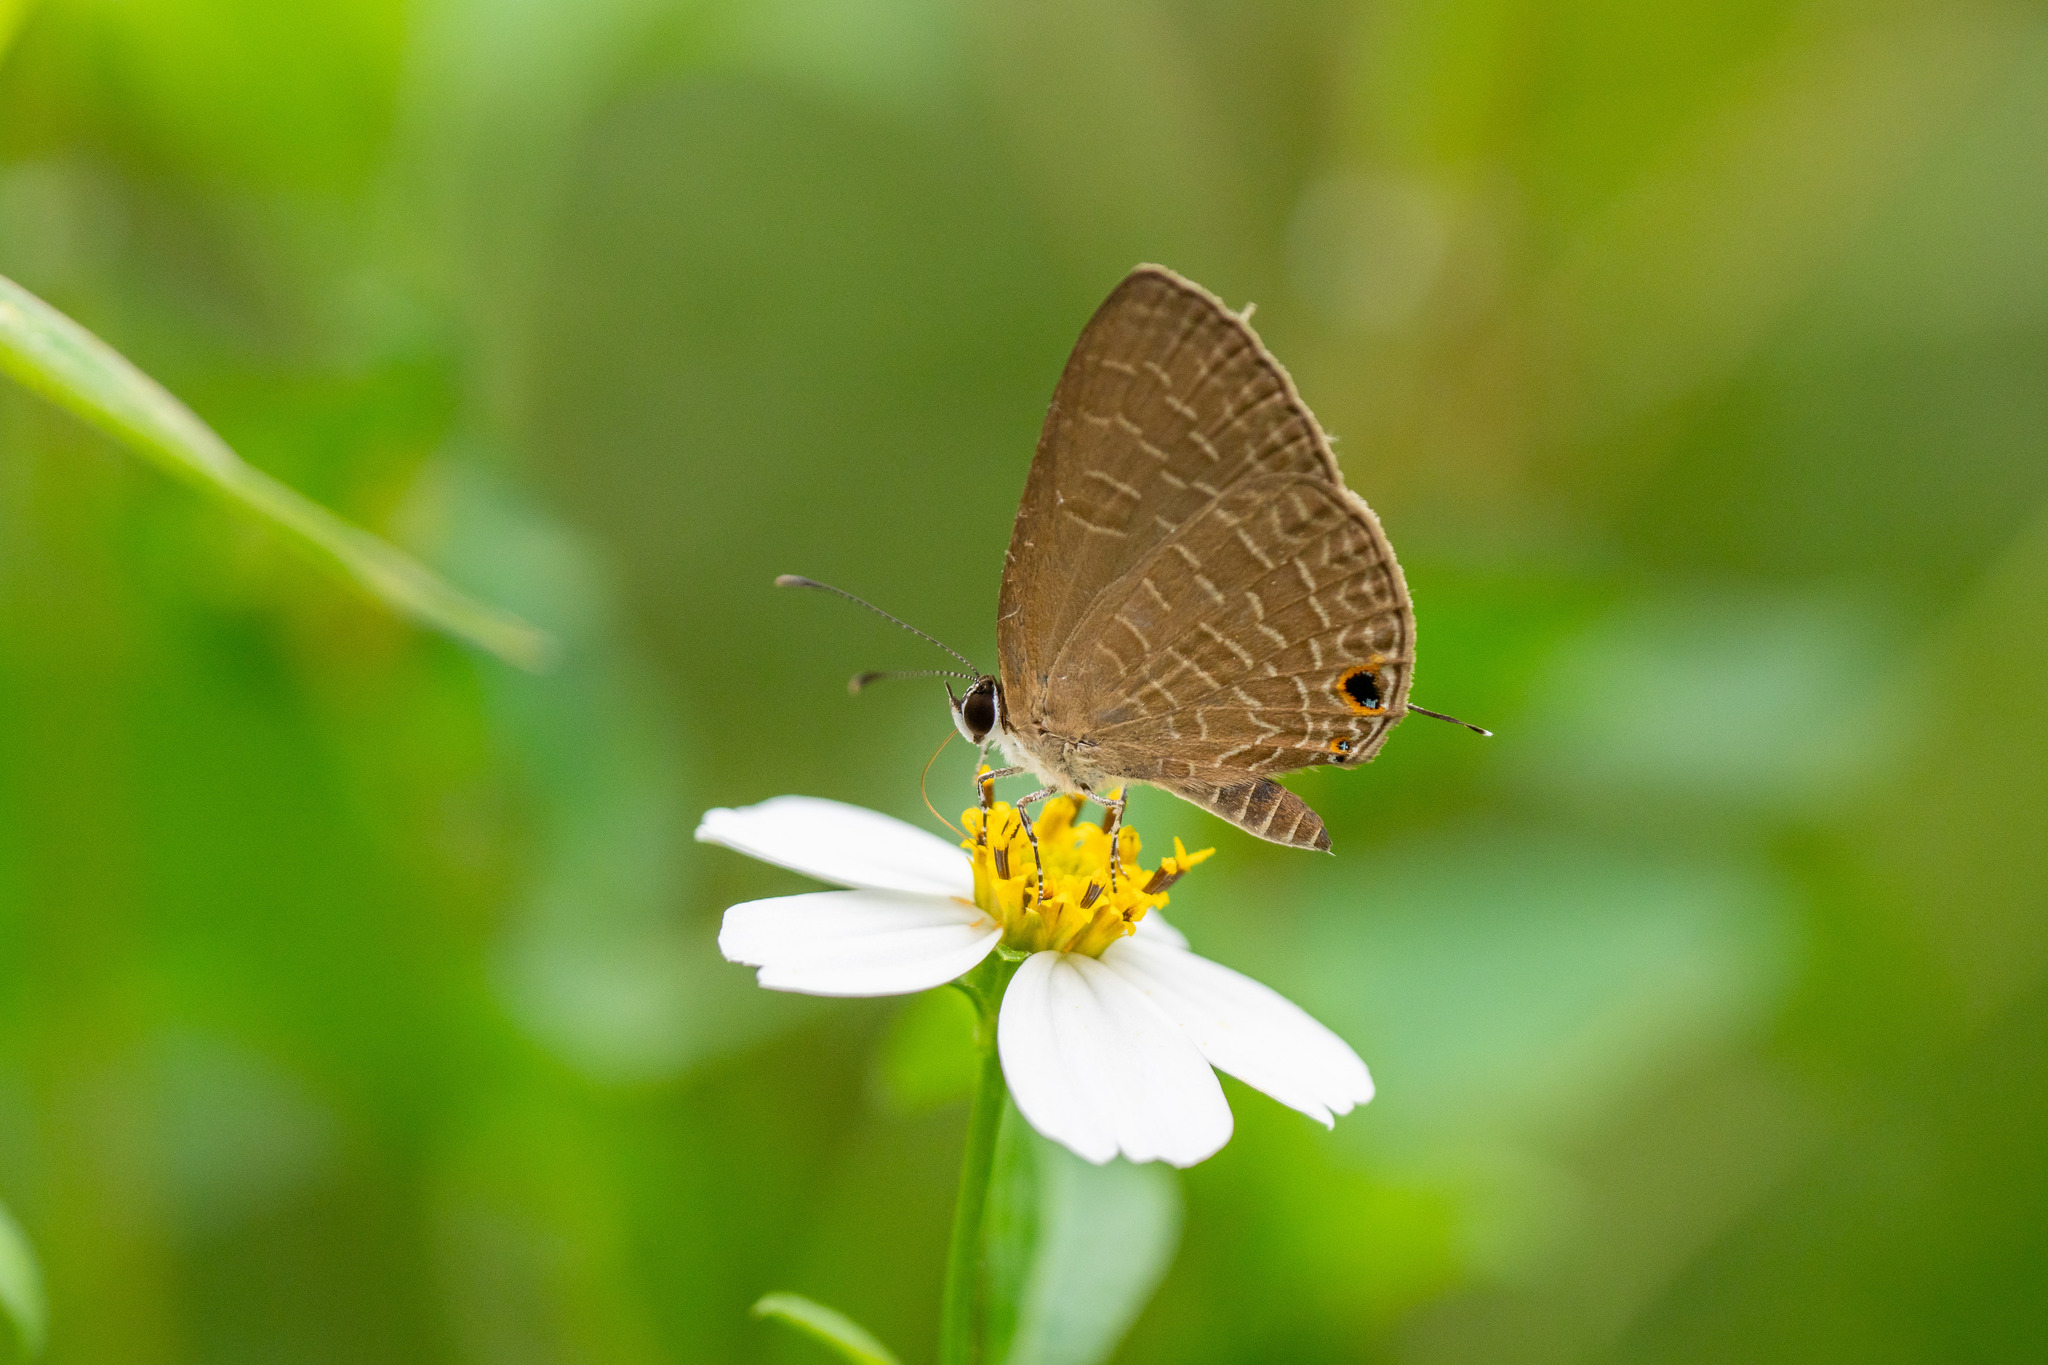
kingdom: Animalia
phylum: Arthropoda
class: Insecta
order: Lepidoptera
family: Lycaenidae
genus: Jamides
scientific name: Jamides bochus
